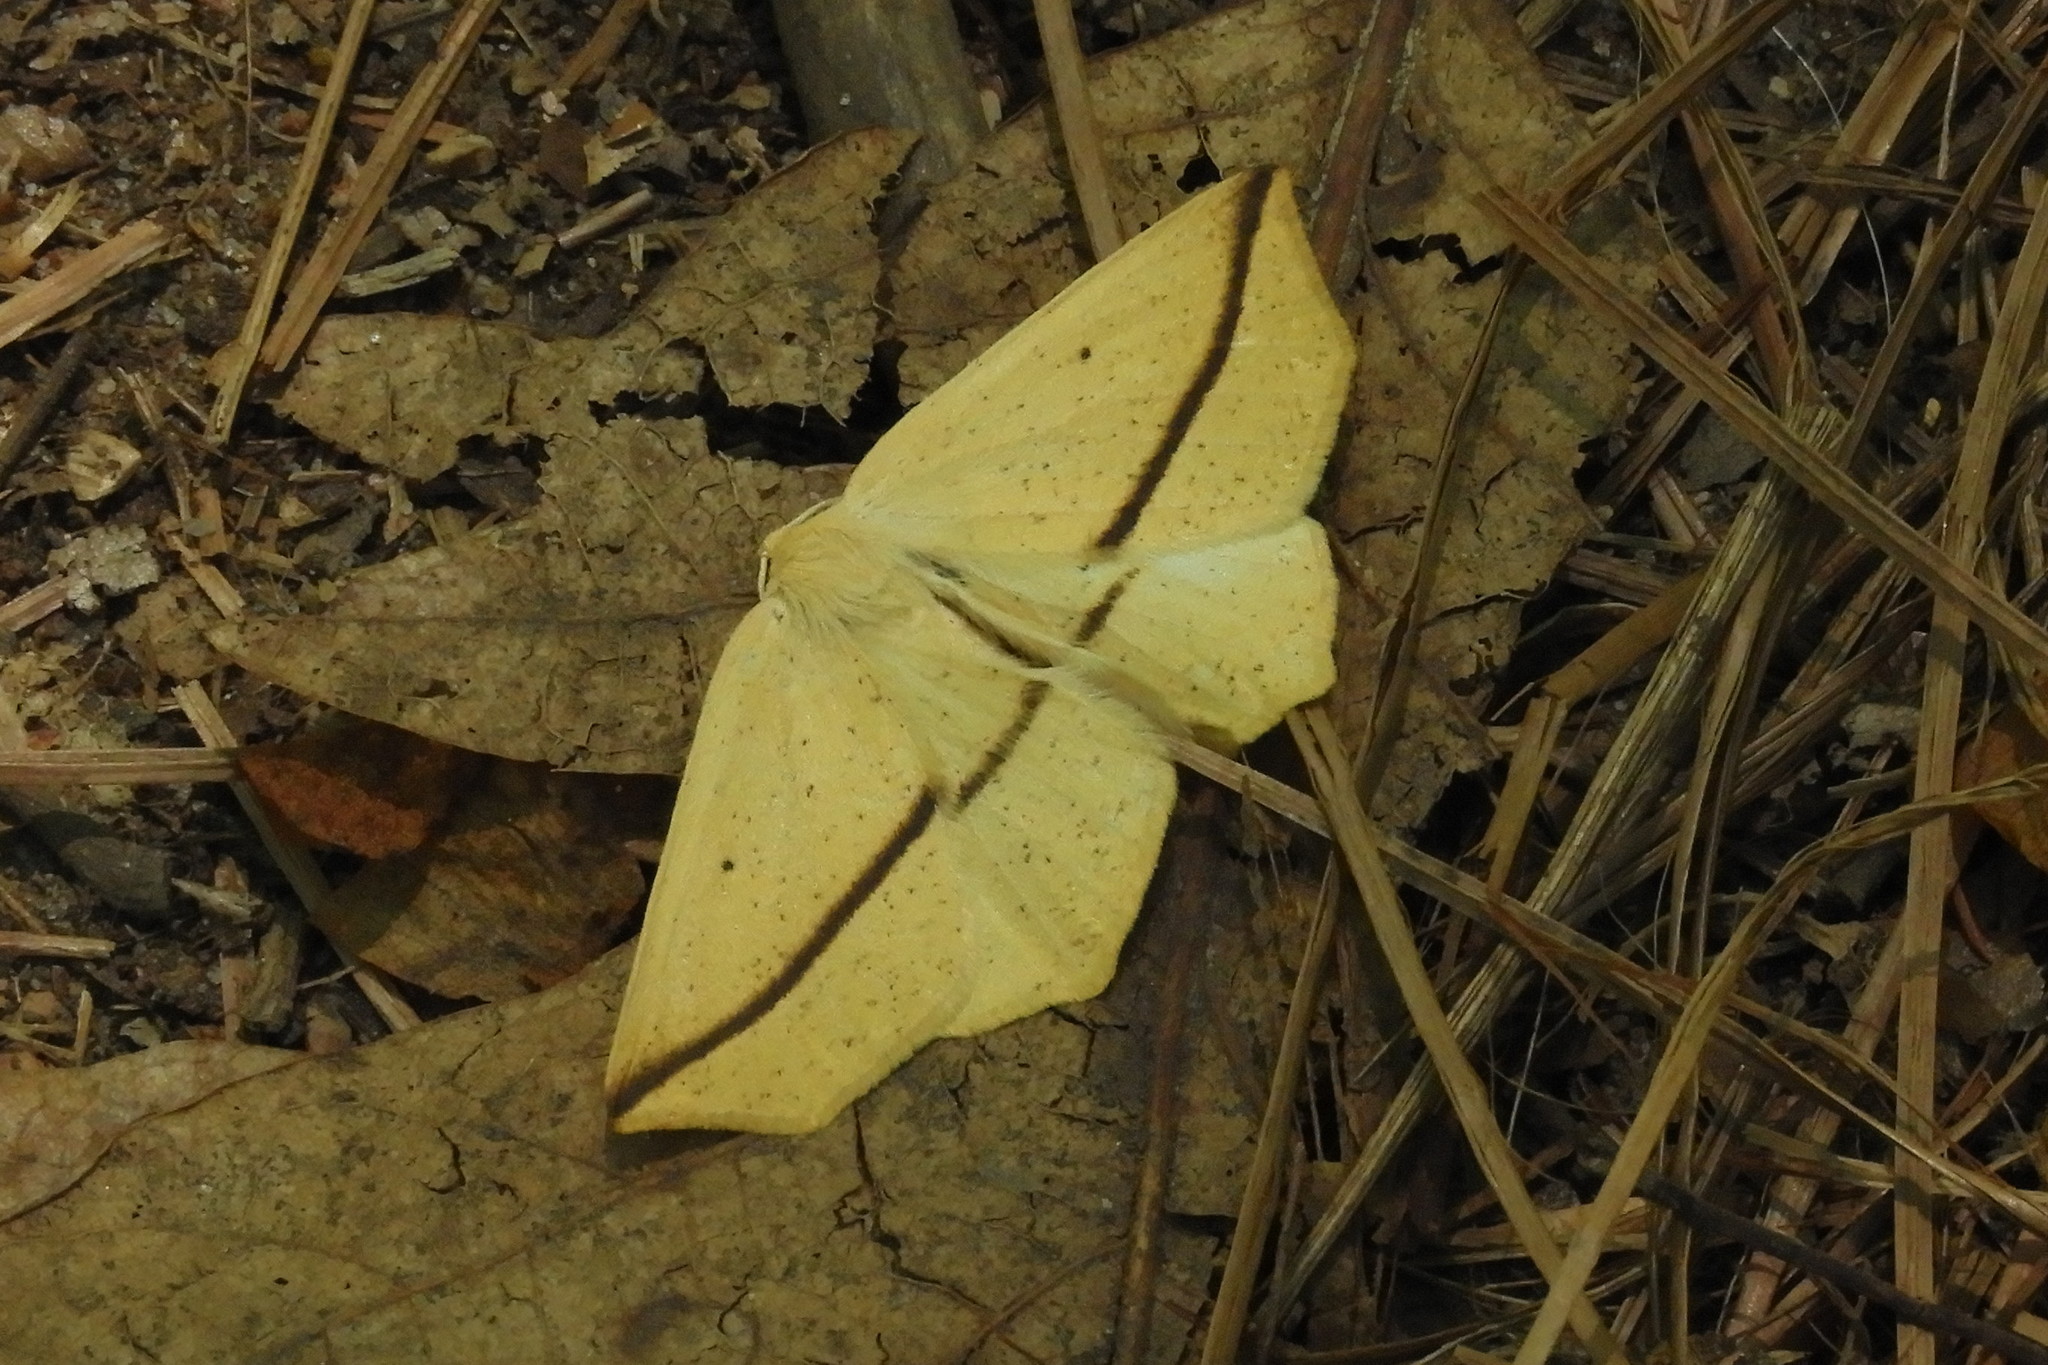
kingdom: Animalia
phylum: Arthropoda
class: Insecta
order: Lepidoptera
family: Geometridae
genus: Tetracis
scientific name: Tetracis crocallata
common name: Yellow slant-line
